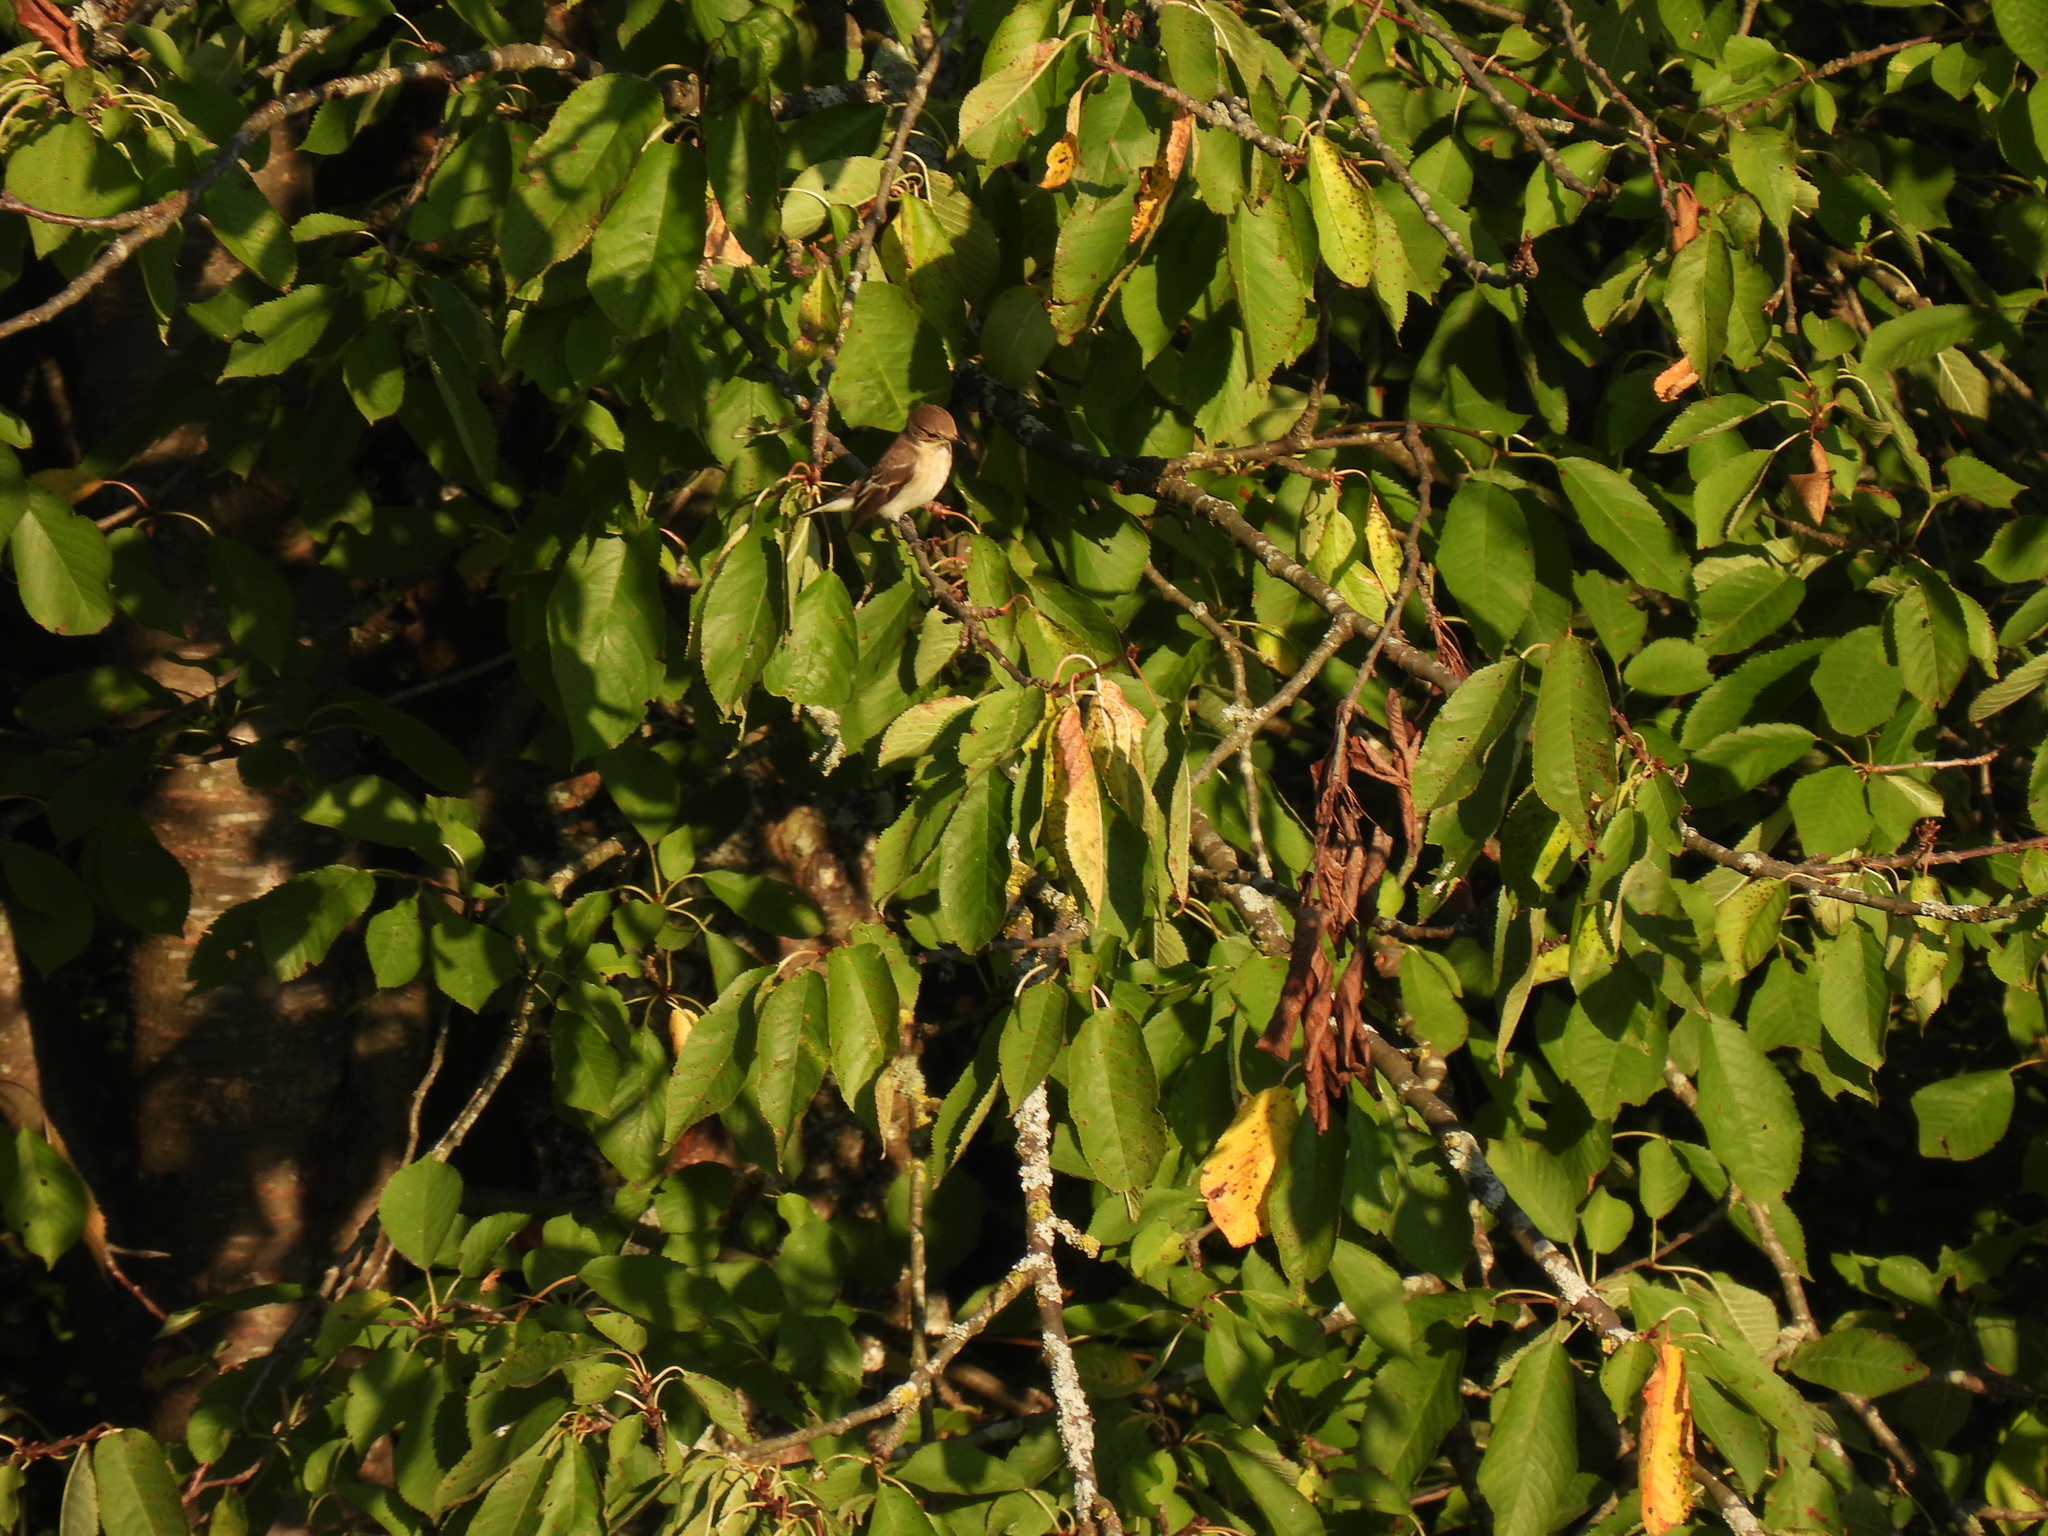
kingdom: Animalia
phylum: Chordata
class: Aves
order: Passeriformes
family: Muscicapidae
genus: Ficedula
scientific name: Ficedula hypoleuca
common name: European pied flycatcher
